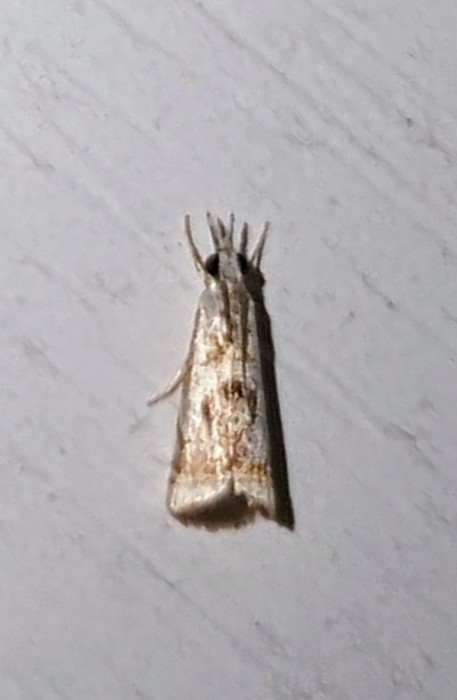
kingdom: Animalia
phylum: Arthropoda
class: Insecta
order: Lepidoptera
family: Crambidae
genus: Microcrambus
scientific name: Microcrambus elegans
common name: Elegant grass-veneer
